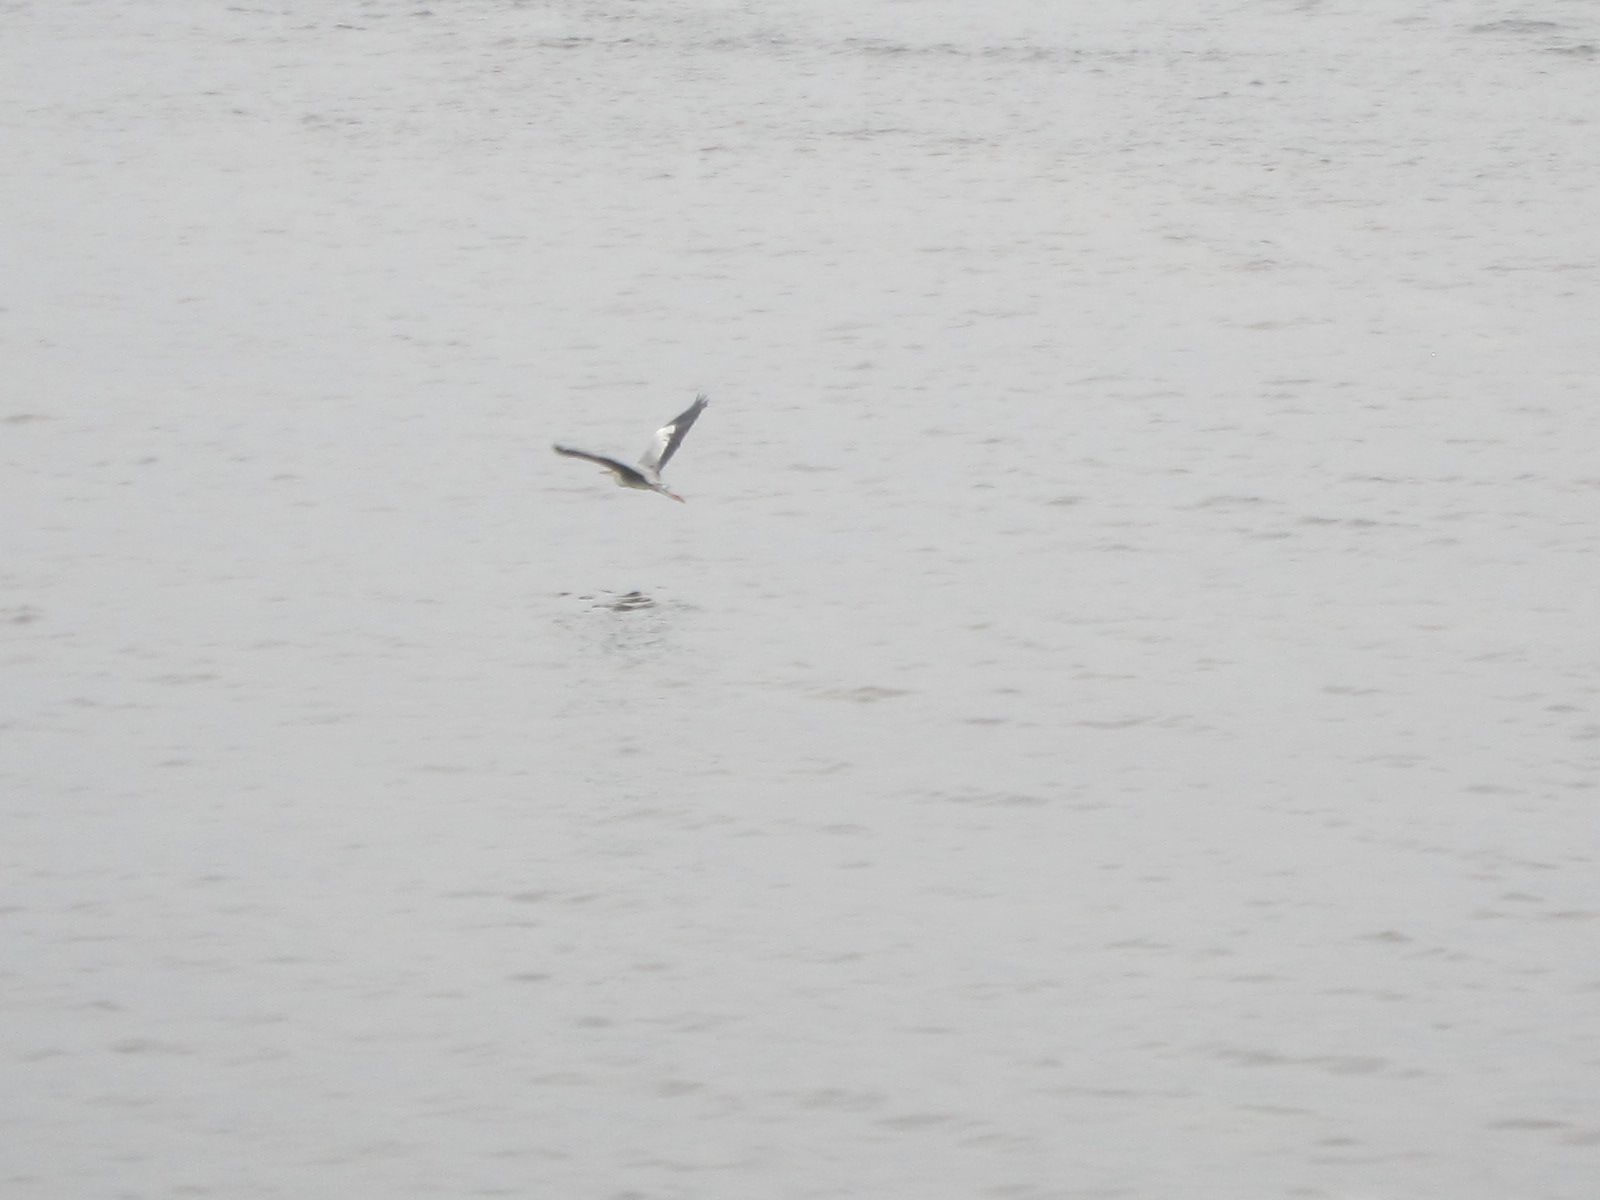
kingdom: Animalia
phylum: Chordata
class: Aves
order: Pelecaniformes
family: Ardeidae
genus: Ardea
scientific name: Ardea cinerea
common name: Grey heron
